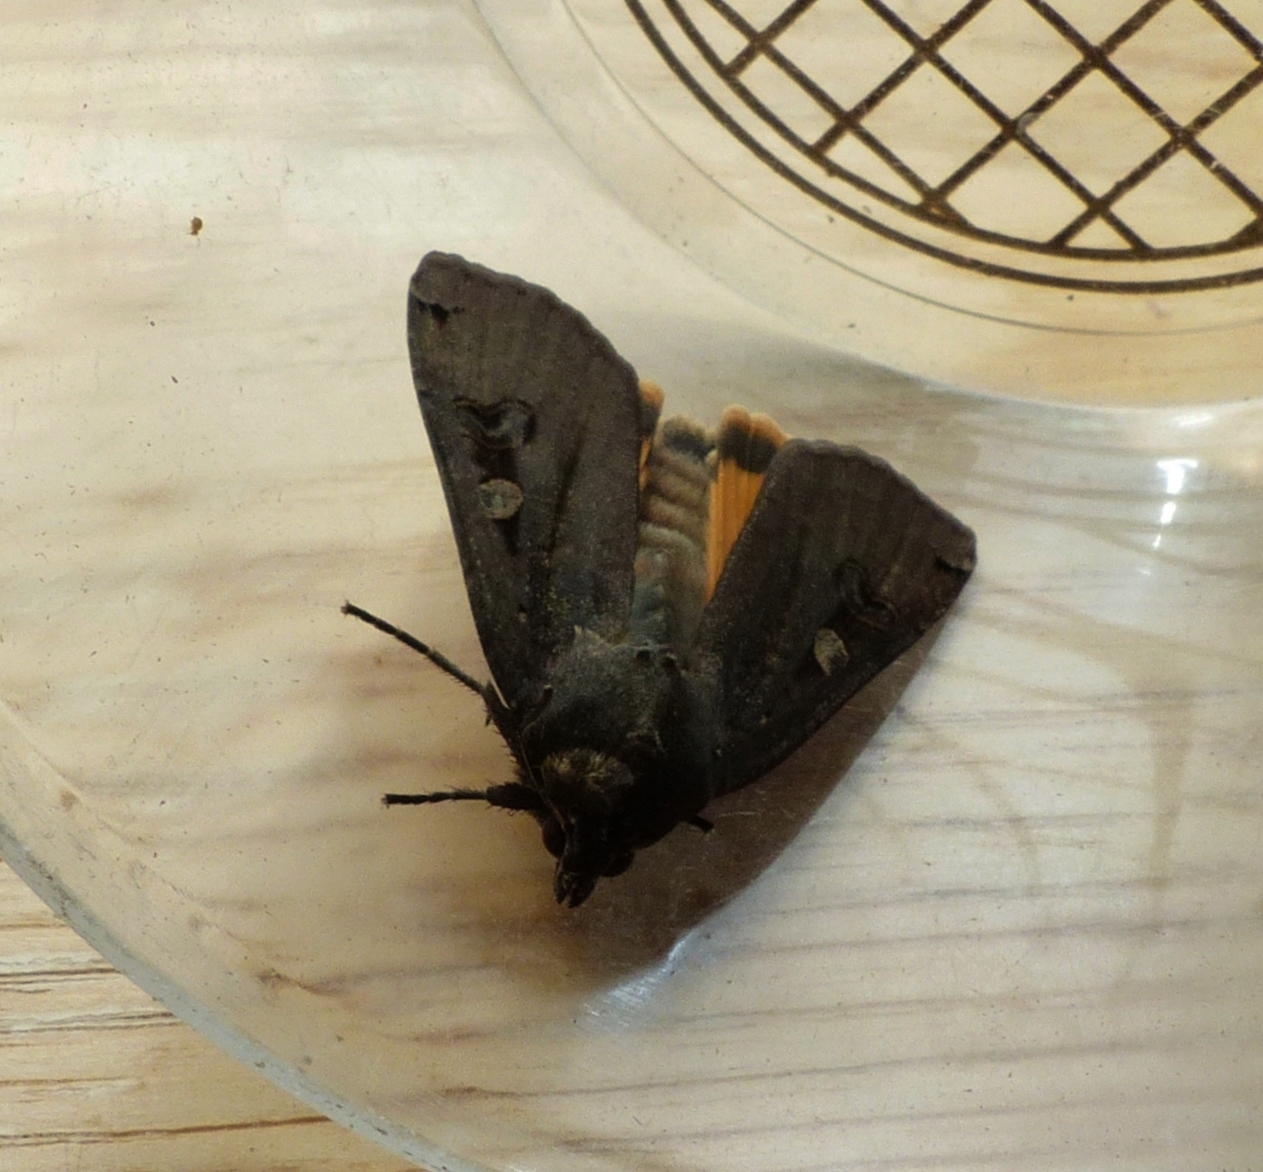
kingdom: Animalia
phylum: Arthropoda
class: Insecta
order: Lepidoptera
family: Noctuidae
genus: Noctua
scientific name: Noctua pronuba
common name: Large yellow underwing
